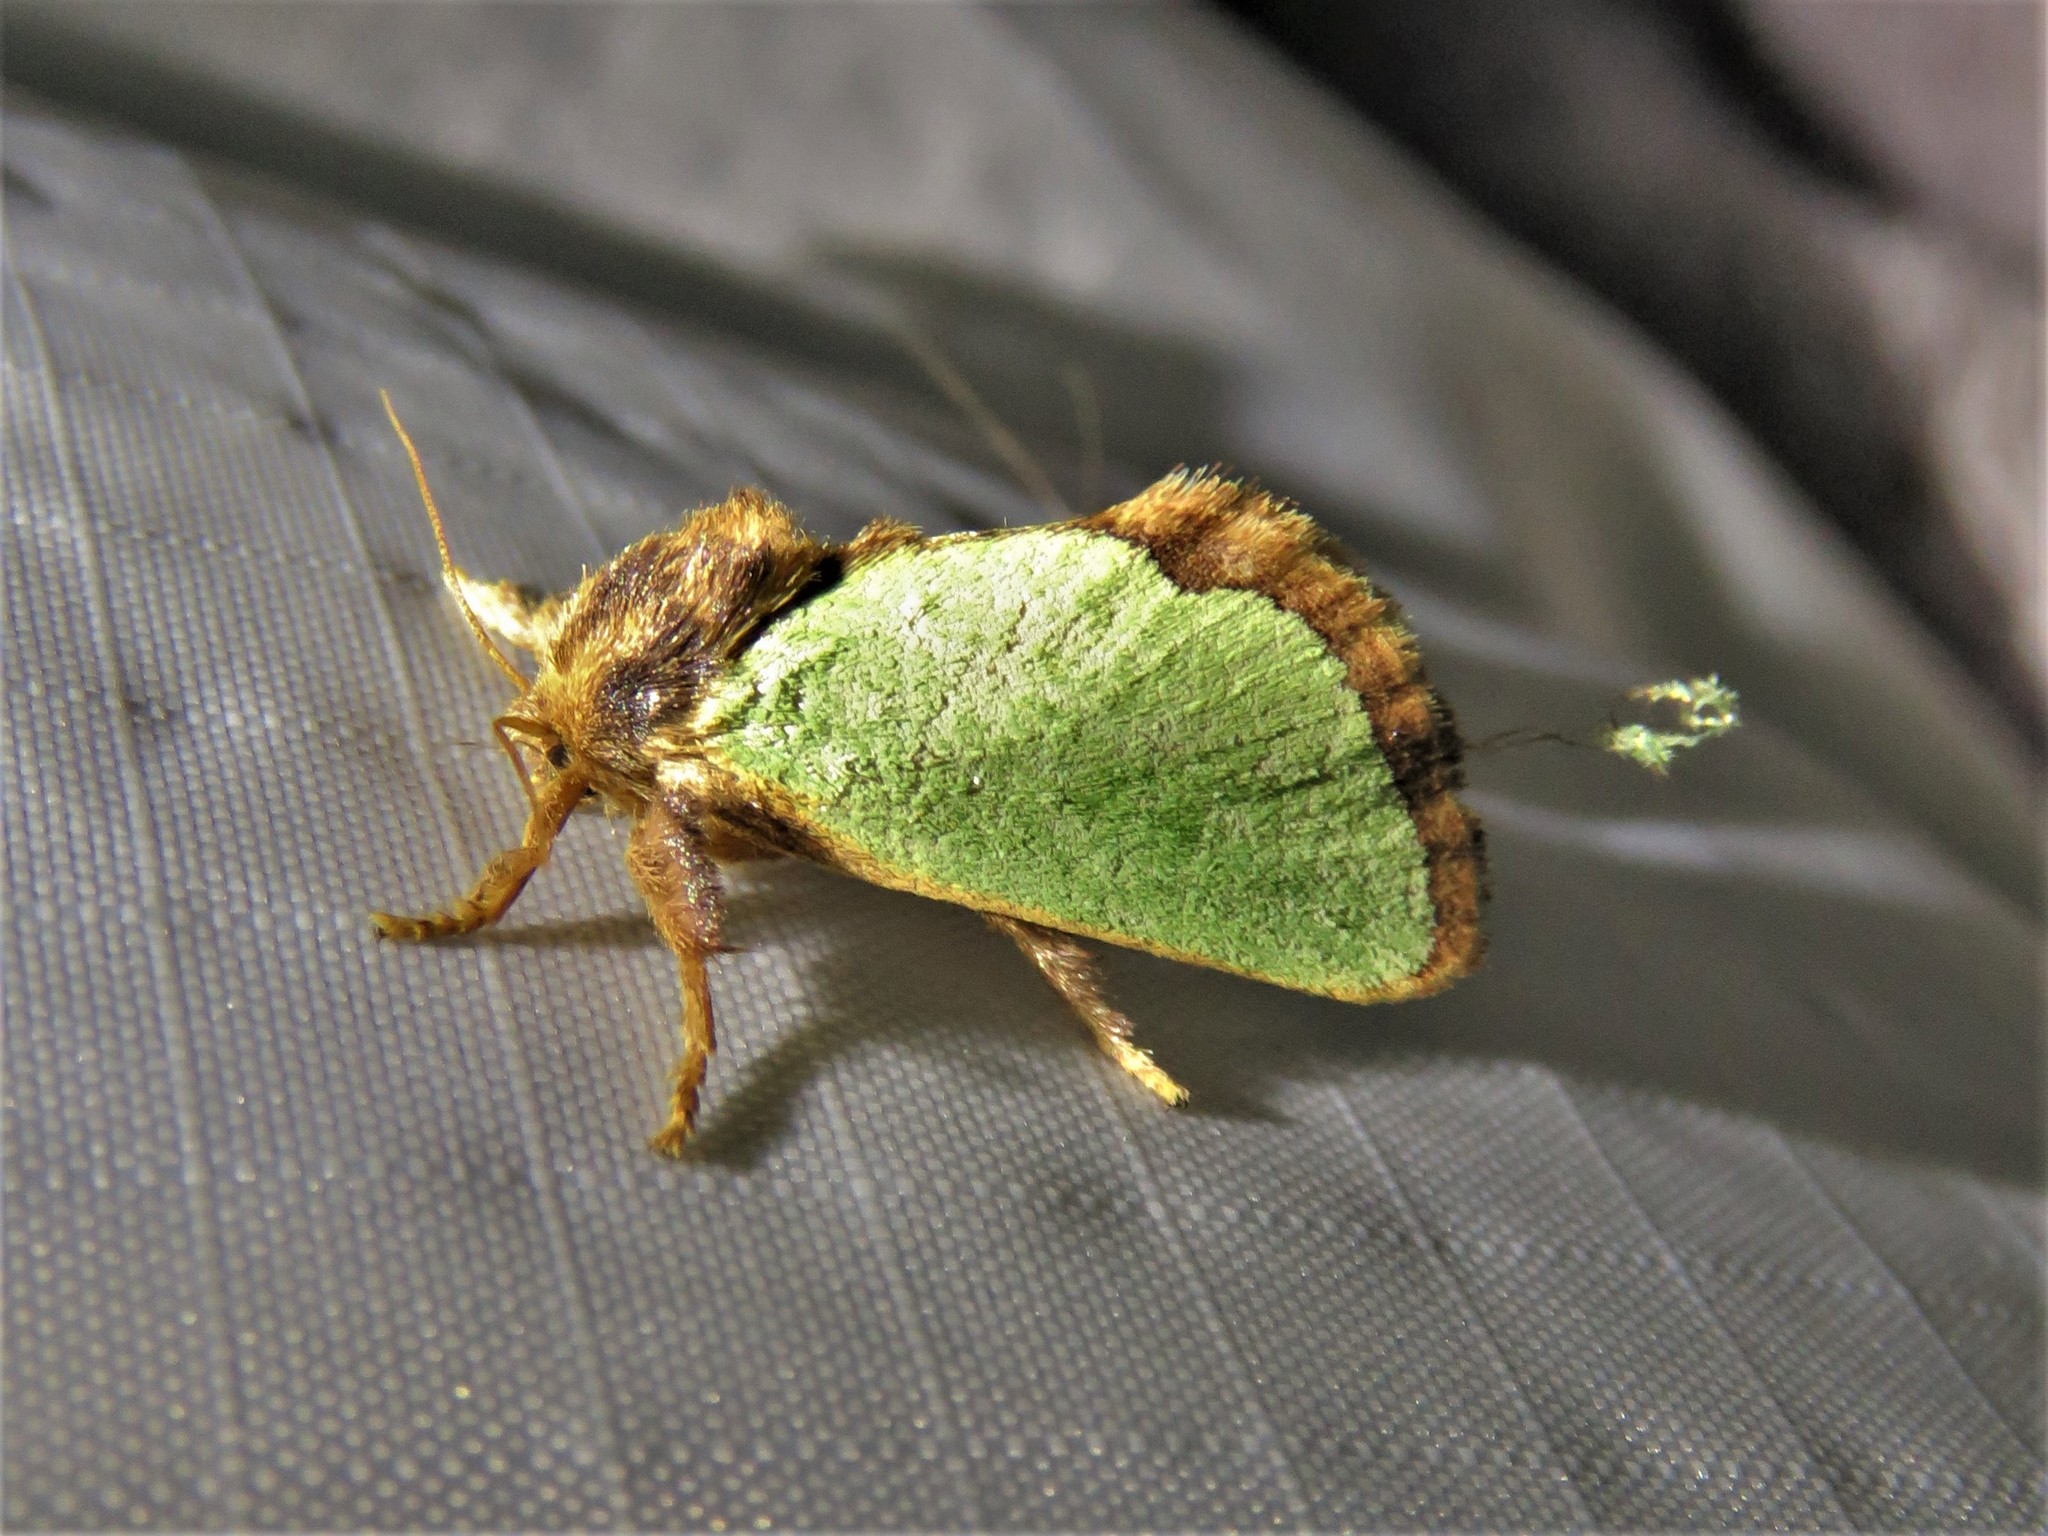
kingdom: Animalia
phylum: Arthropoda
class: Insecta
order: Lepidoptera
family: Limacodidae
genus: Euclea
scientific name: Euclea incisa
